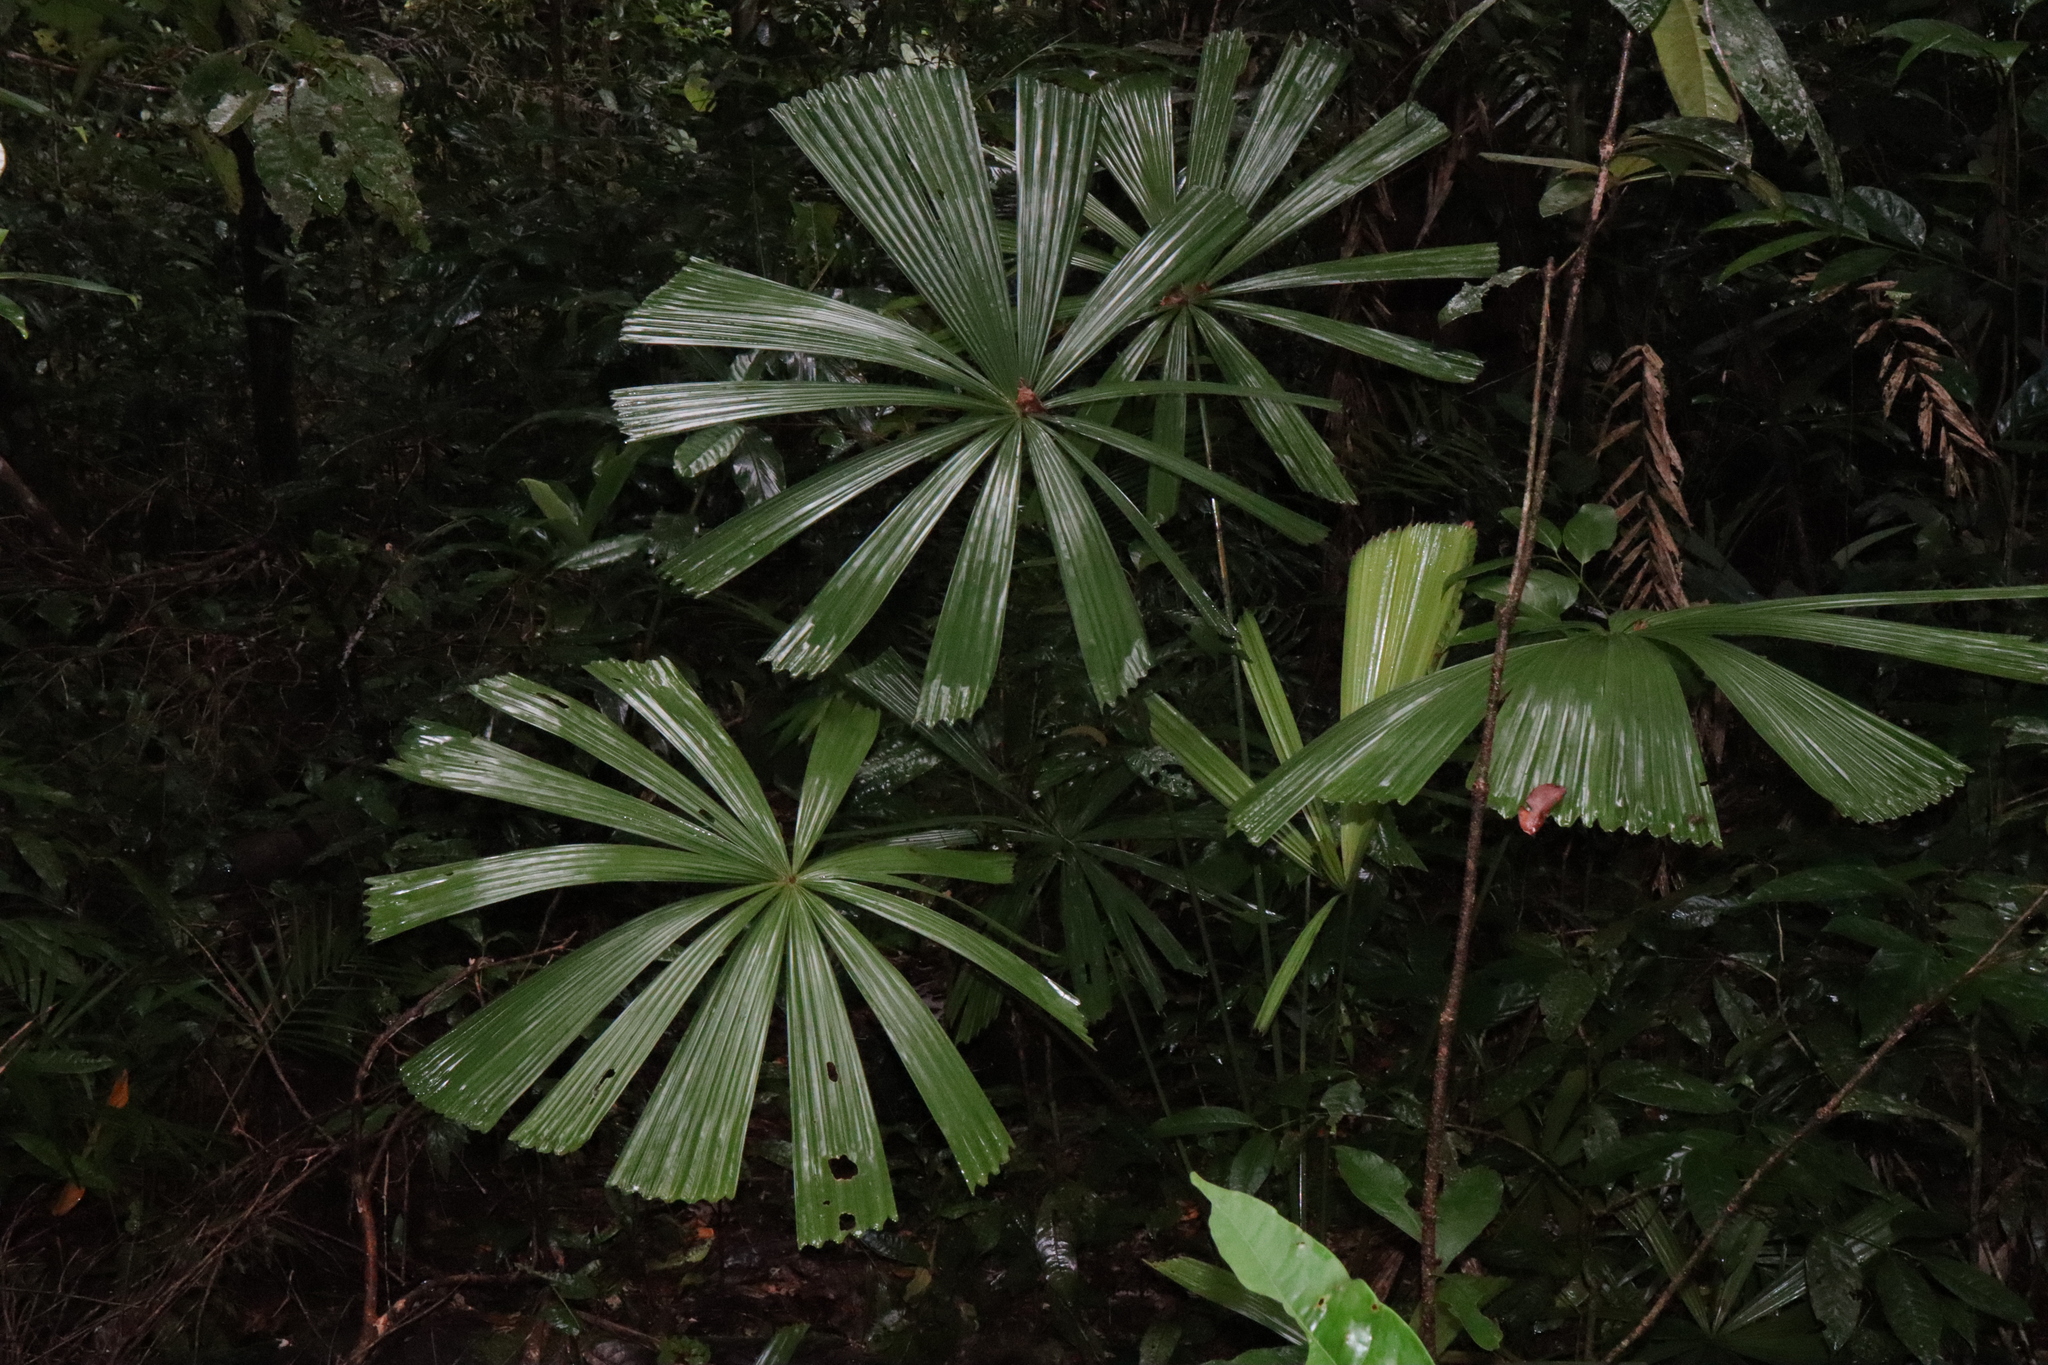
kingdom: Plantae
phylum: Tracheophyta
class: Liliopsida
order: Arecales
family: Arecaceae
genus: Licuala
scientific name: Licuala ramsayi
